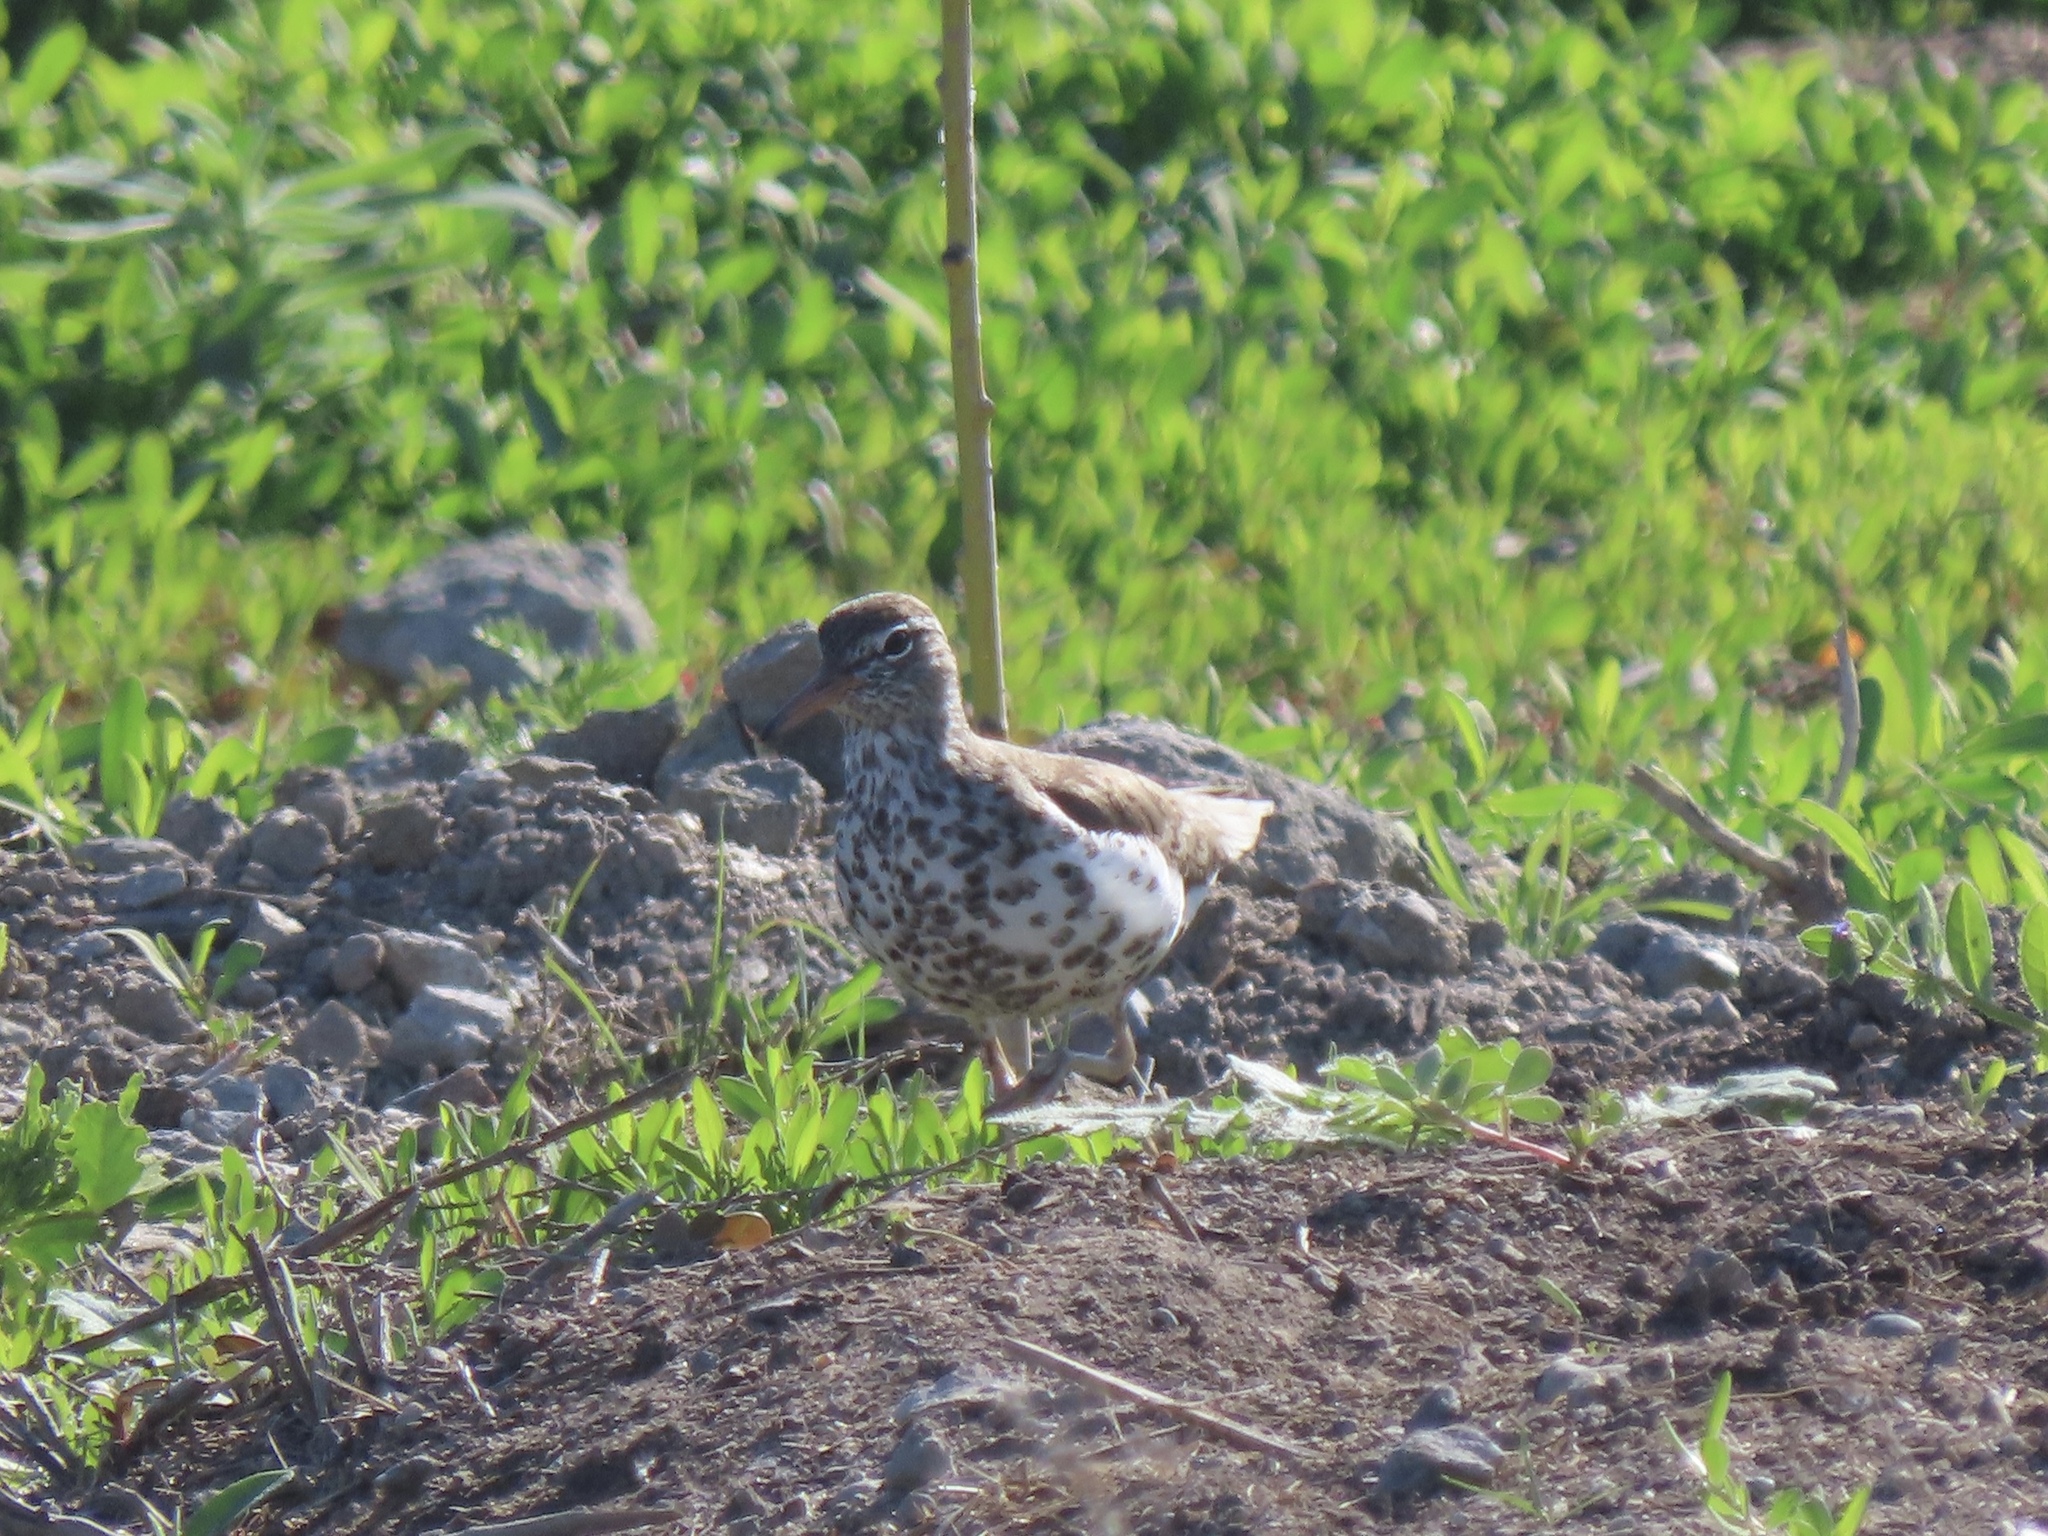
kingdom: Animalia
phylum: Chordata
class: Aves
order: Charadriiformes
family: Scolopacidae
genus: Actitis
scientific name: Actitis macularius
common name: Spotted sandpiper
